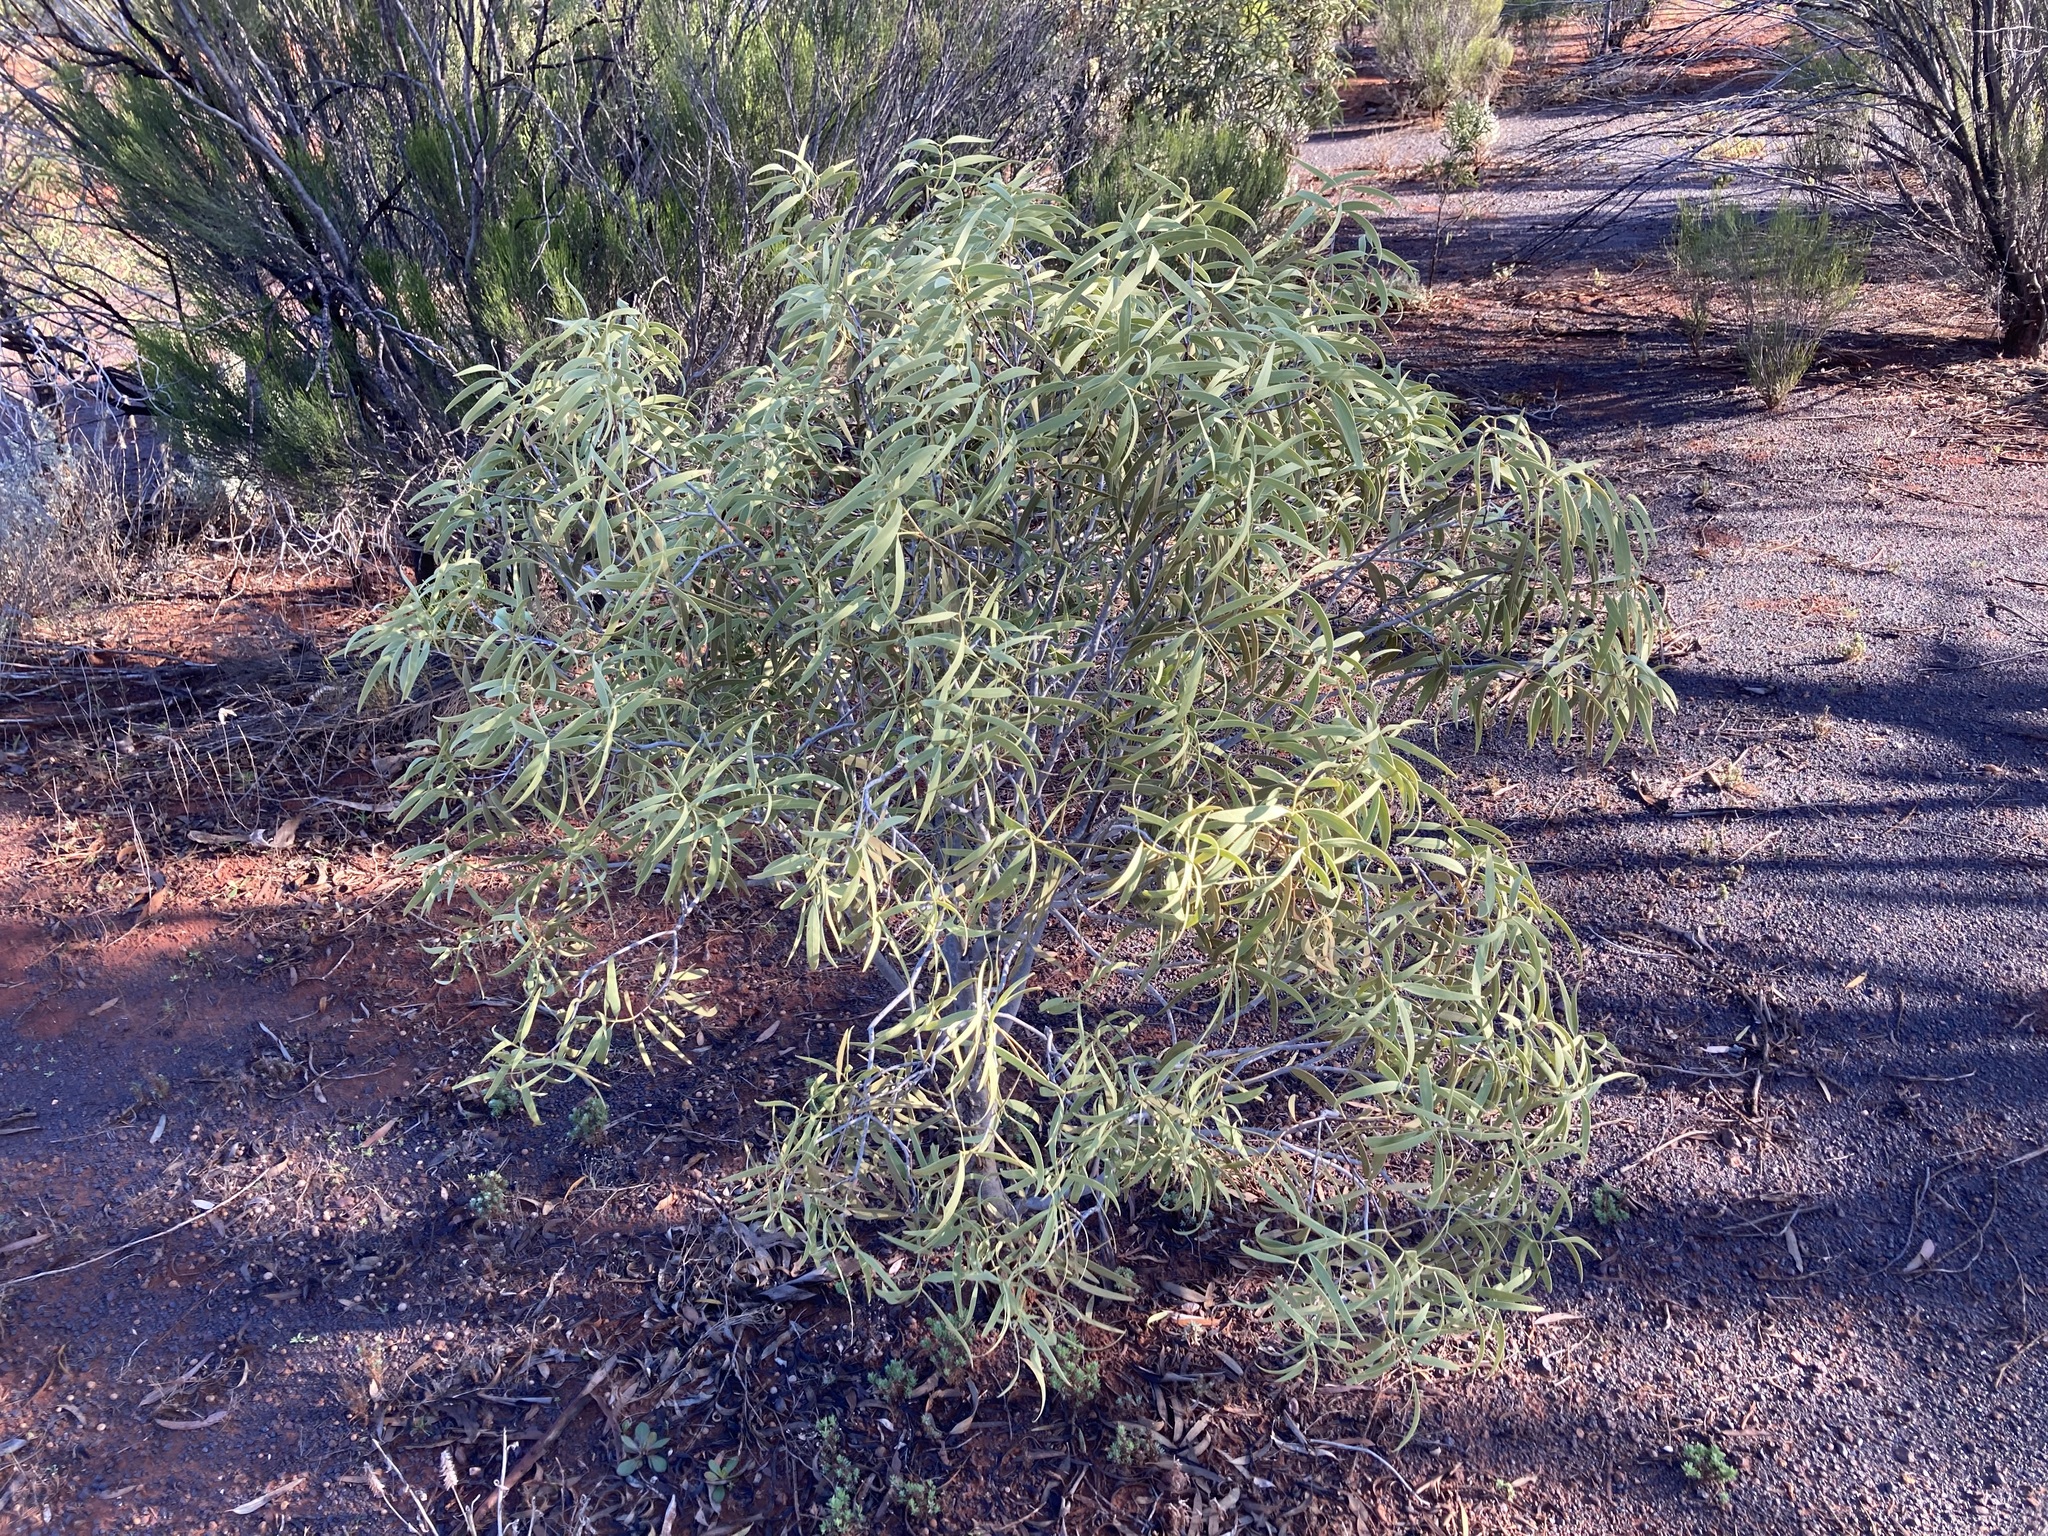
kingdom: Plantae
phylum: Tracheophyta
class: Magnoliopsida
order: Santalales
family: Santalaceae
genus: Santalum
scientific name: Santalum acuminatum
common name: Sweet quandong
